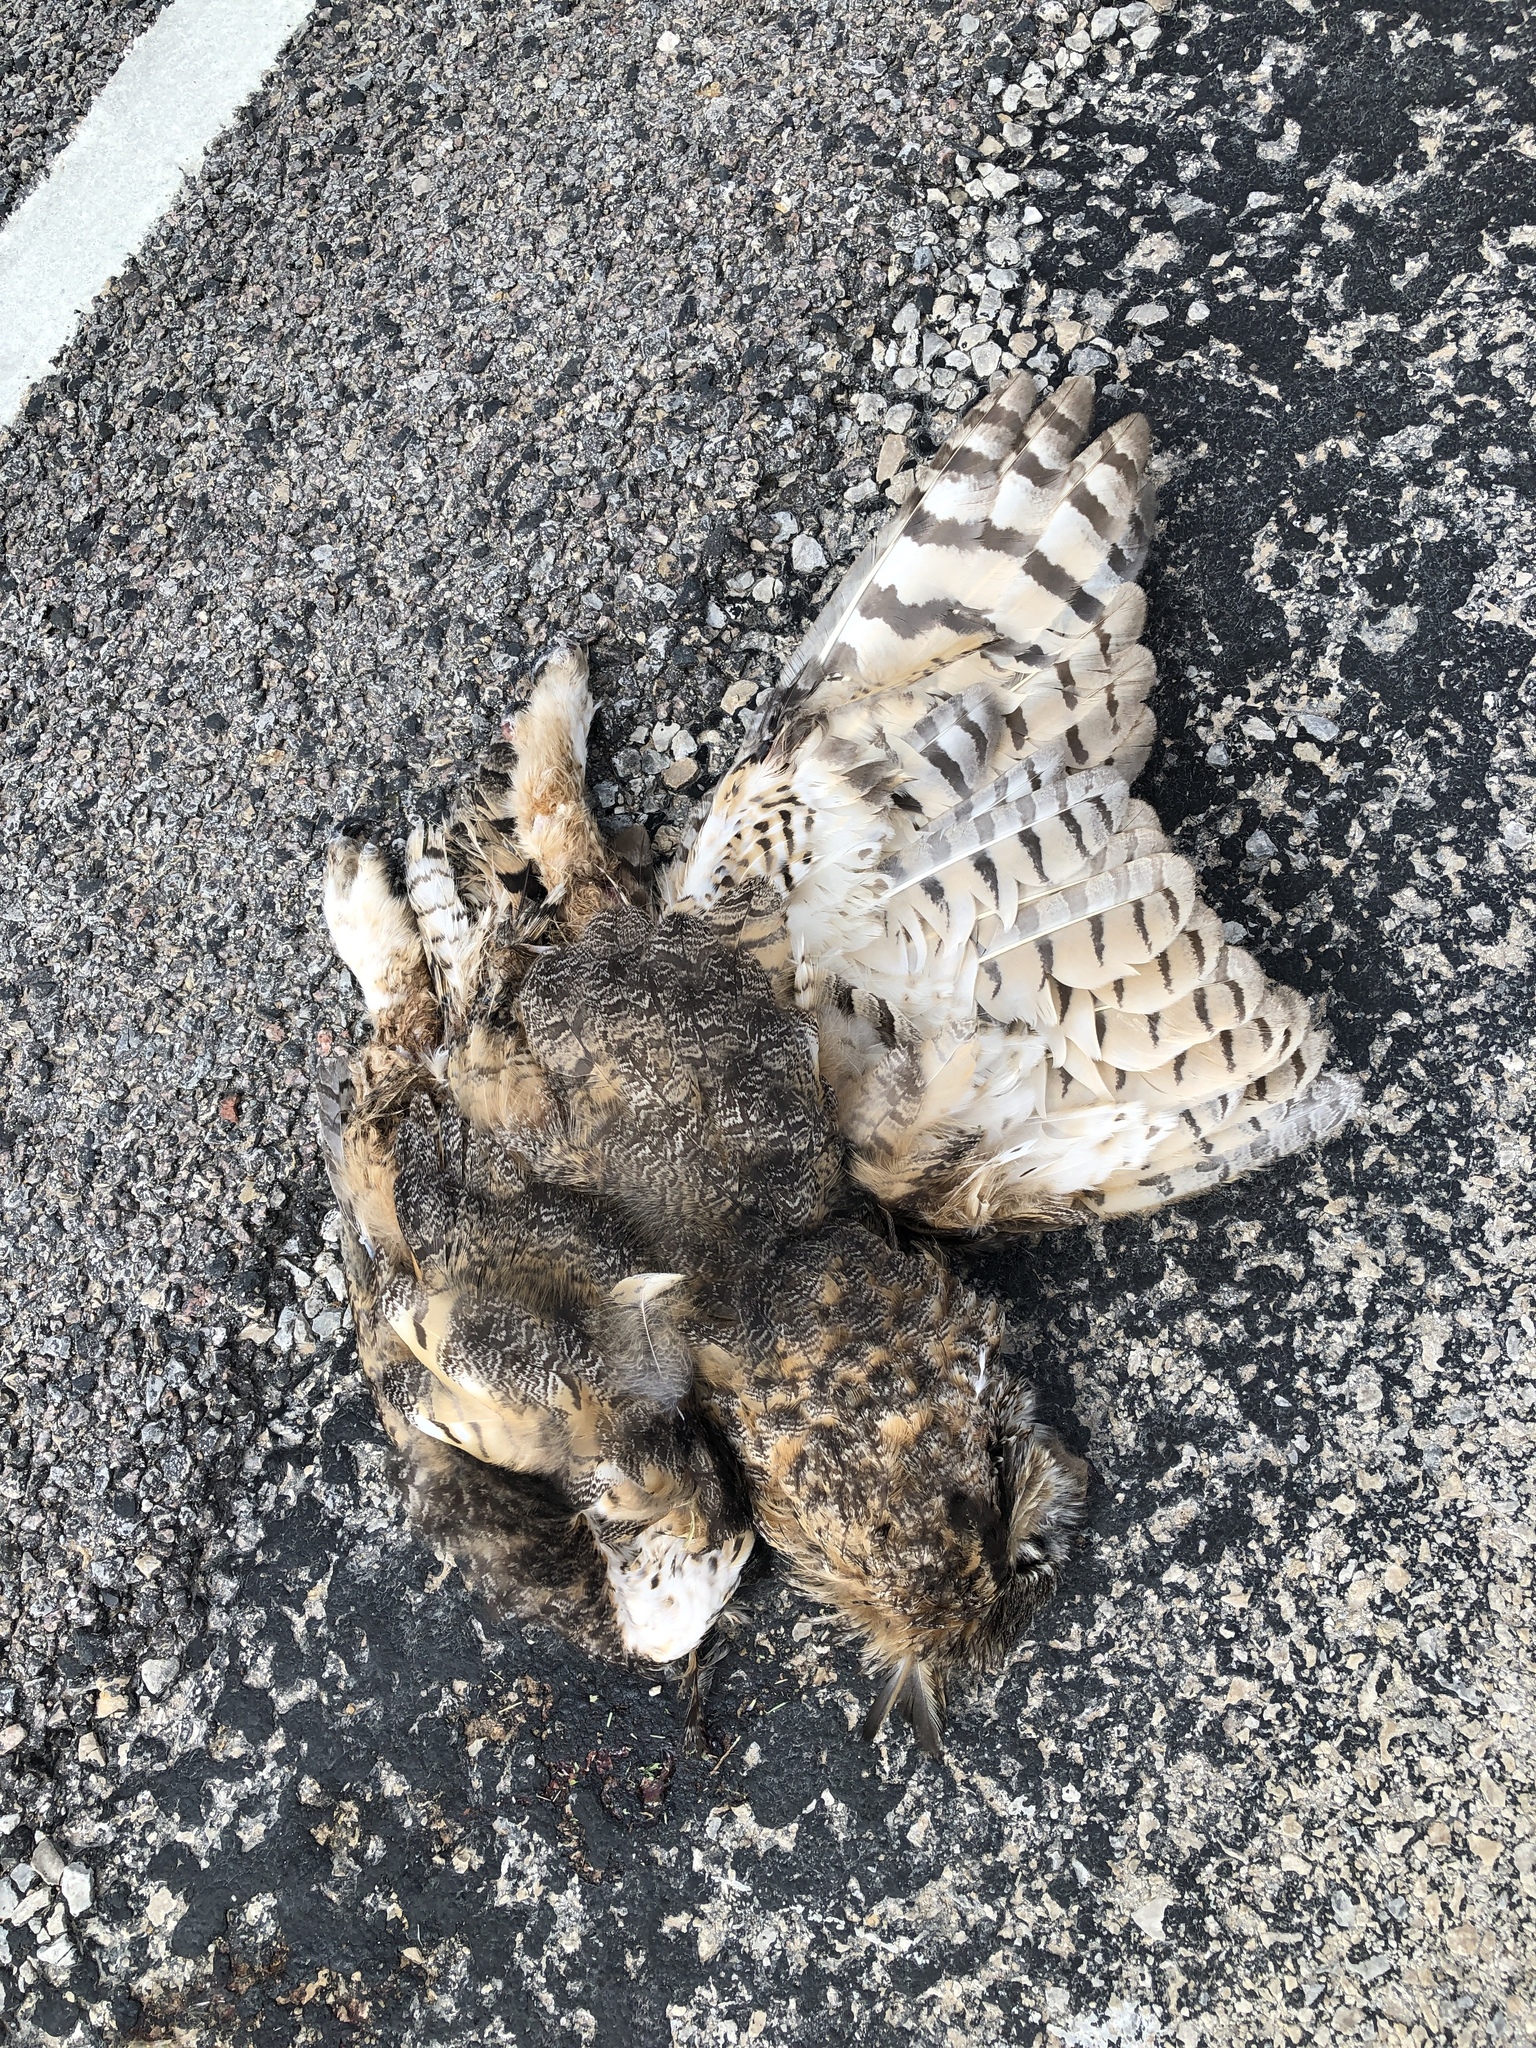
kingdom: Animalia
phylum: Chordata
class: Aves
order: Strigiformes
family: Strigidae
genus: Bubo
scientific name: Bubo virginianus
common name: Great horned owl
